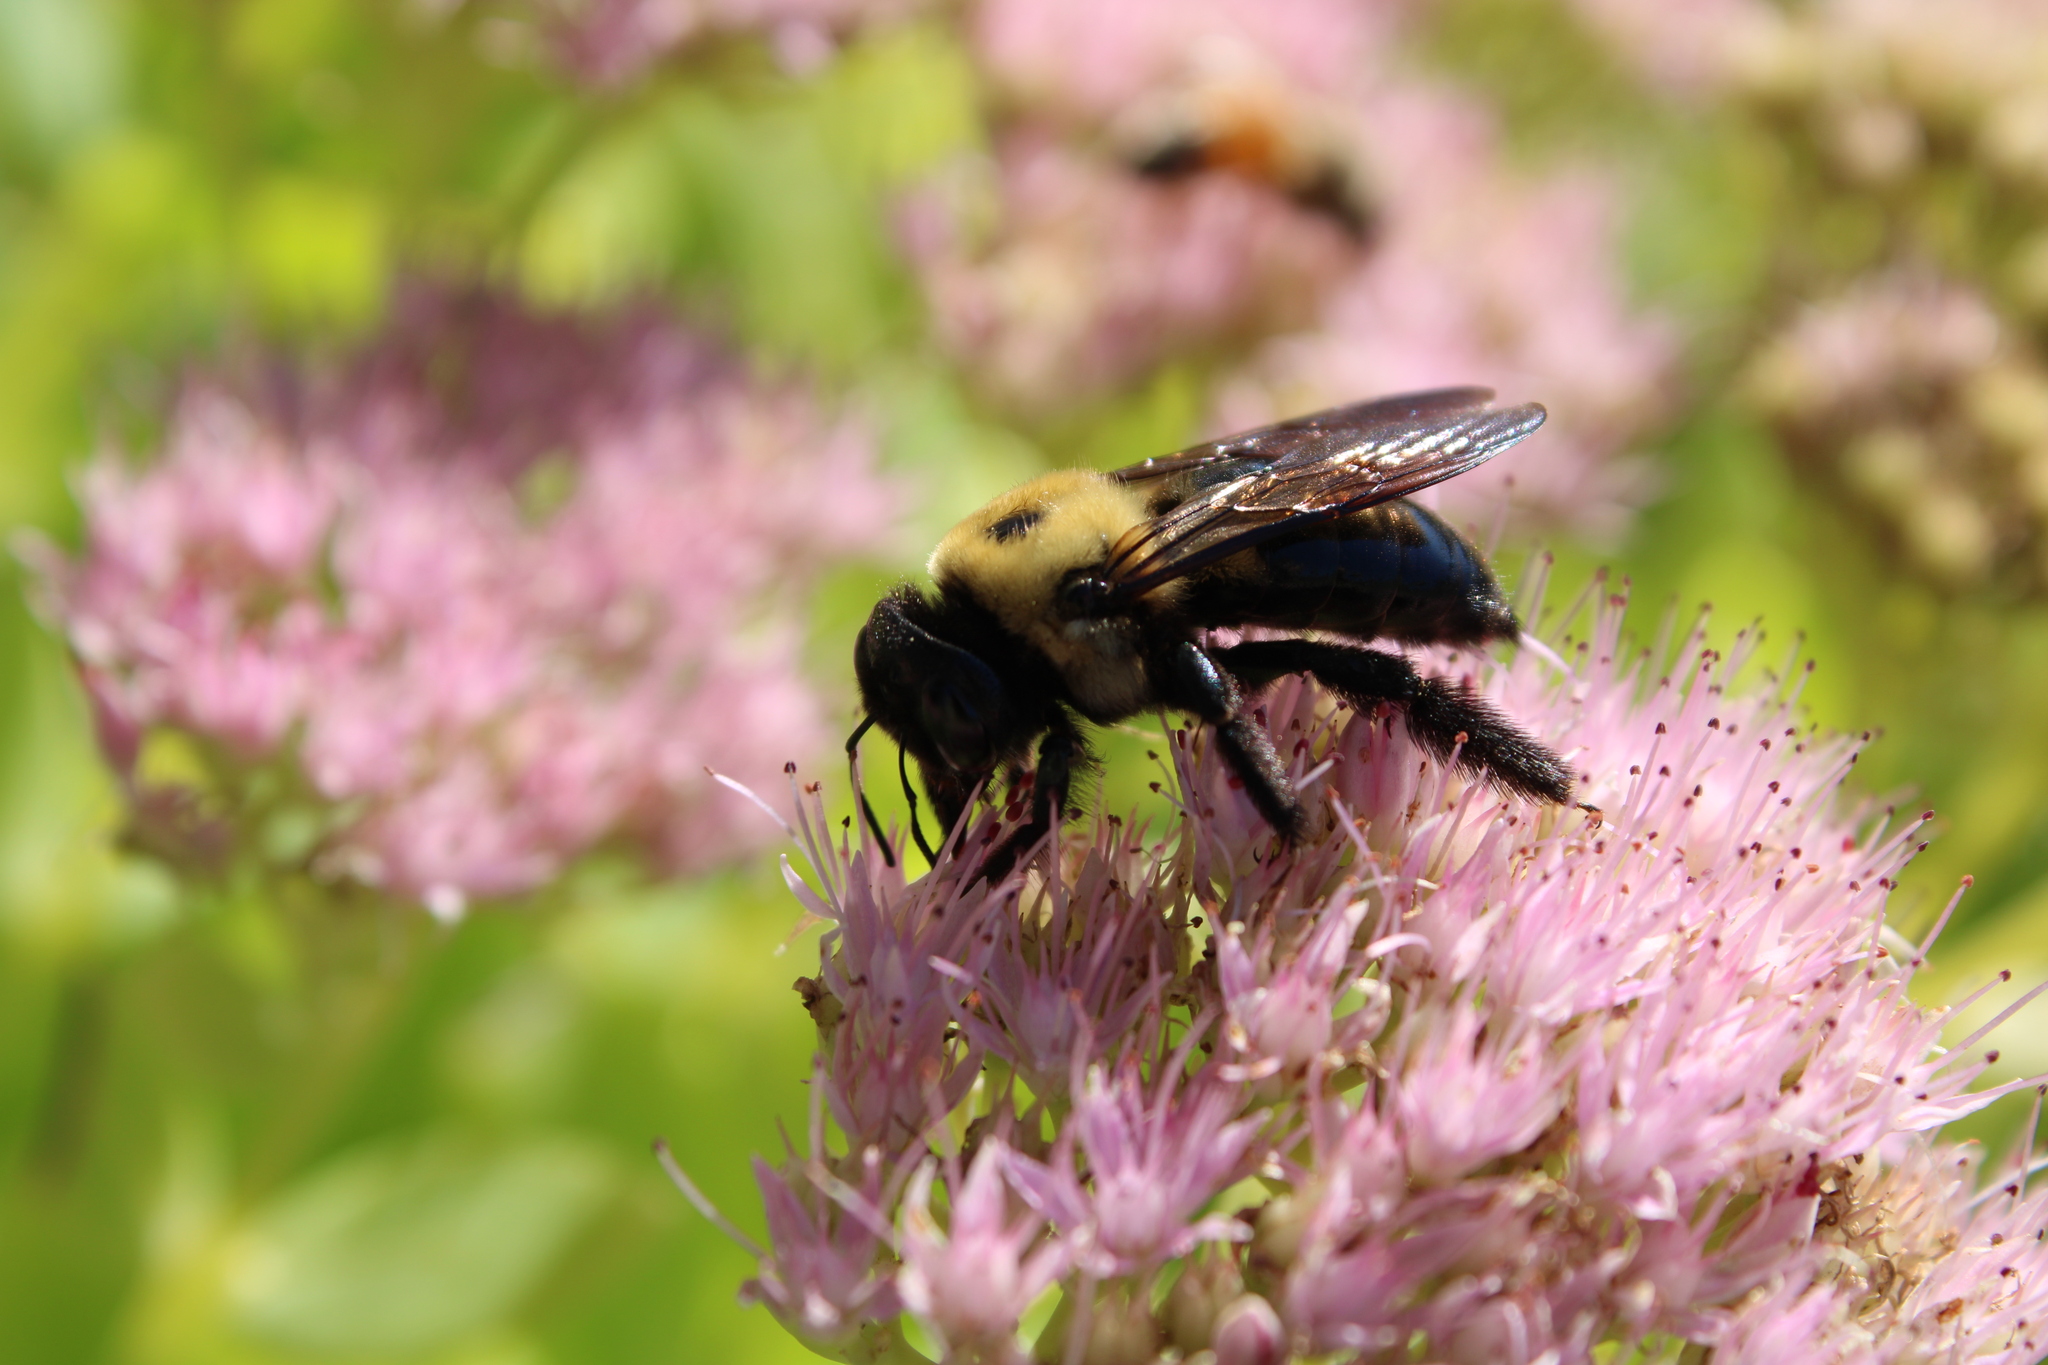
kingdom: Animalia
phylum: Arthropoda
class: Insecta
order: Hymenoptera
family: Apidae
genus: Xylocopa
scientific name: Xylocopa virginica
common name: Carpenter bee
